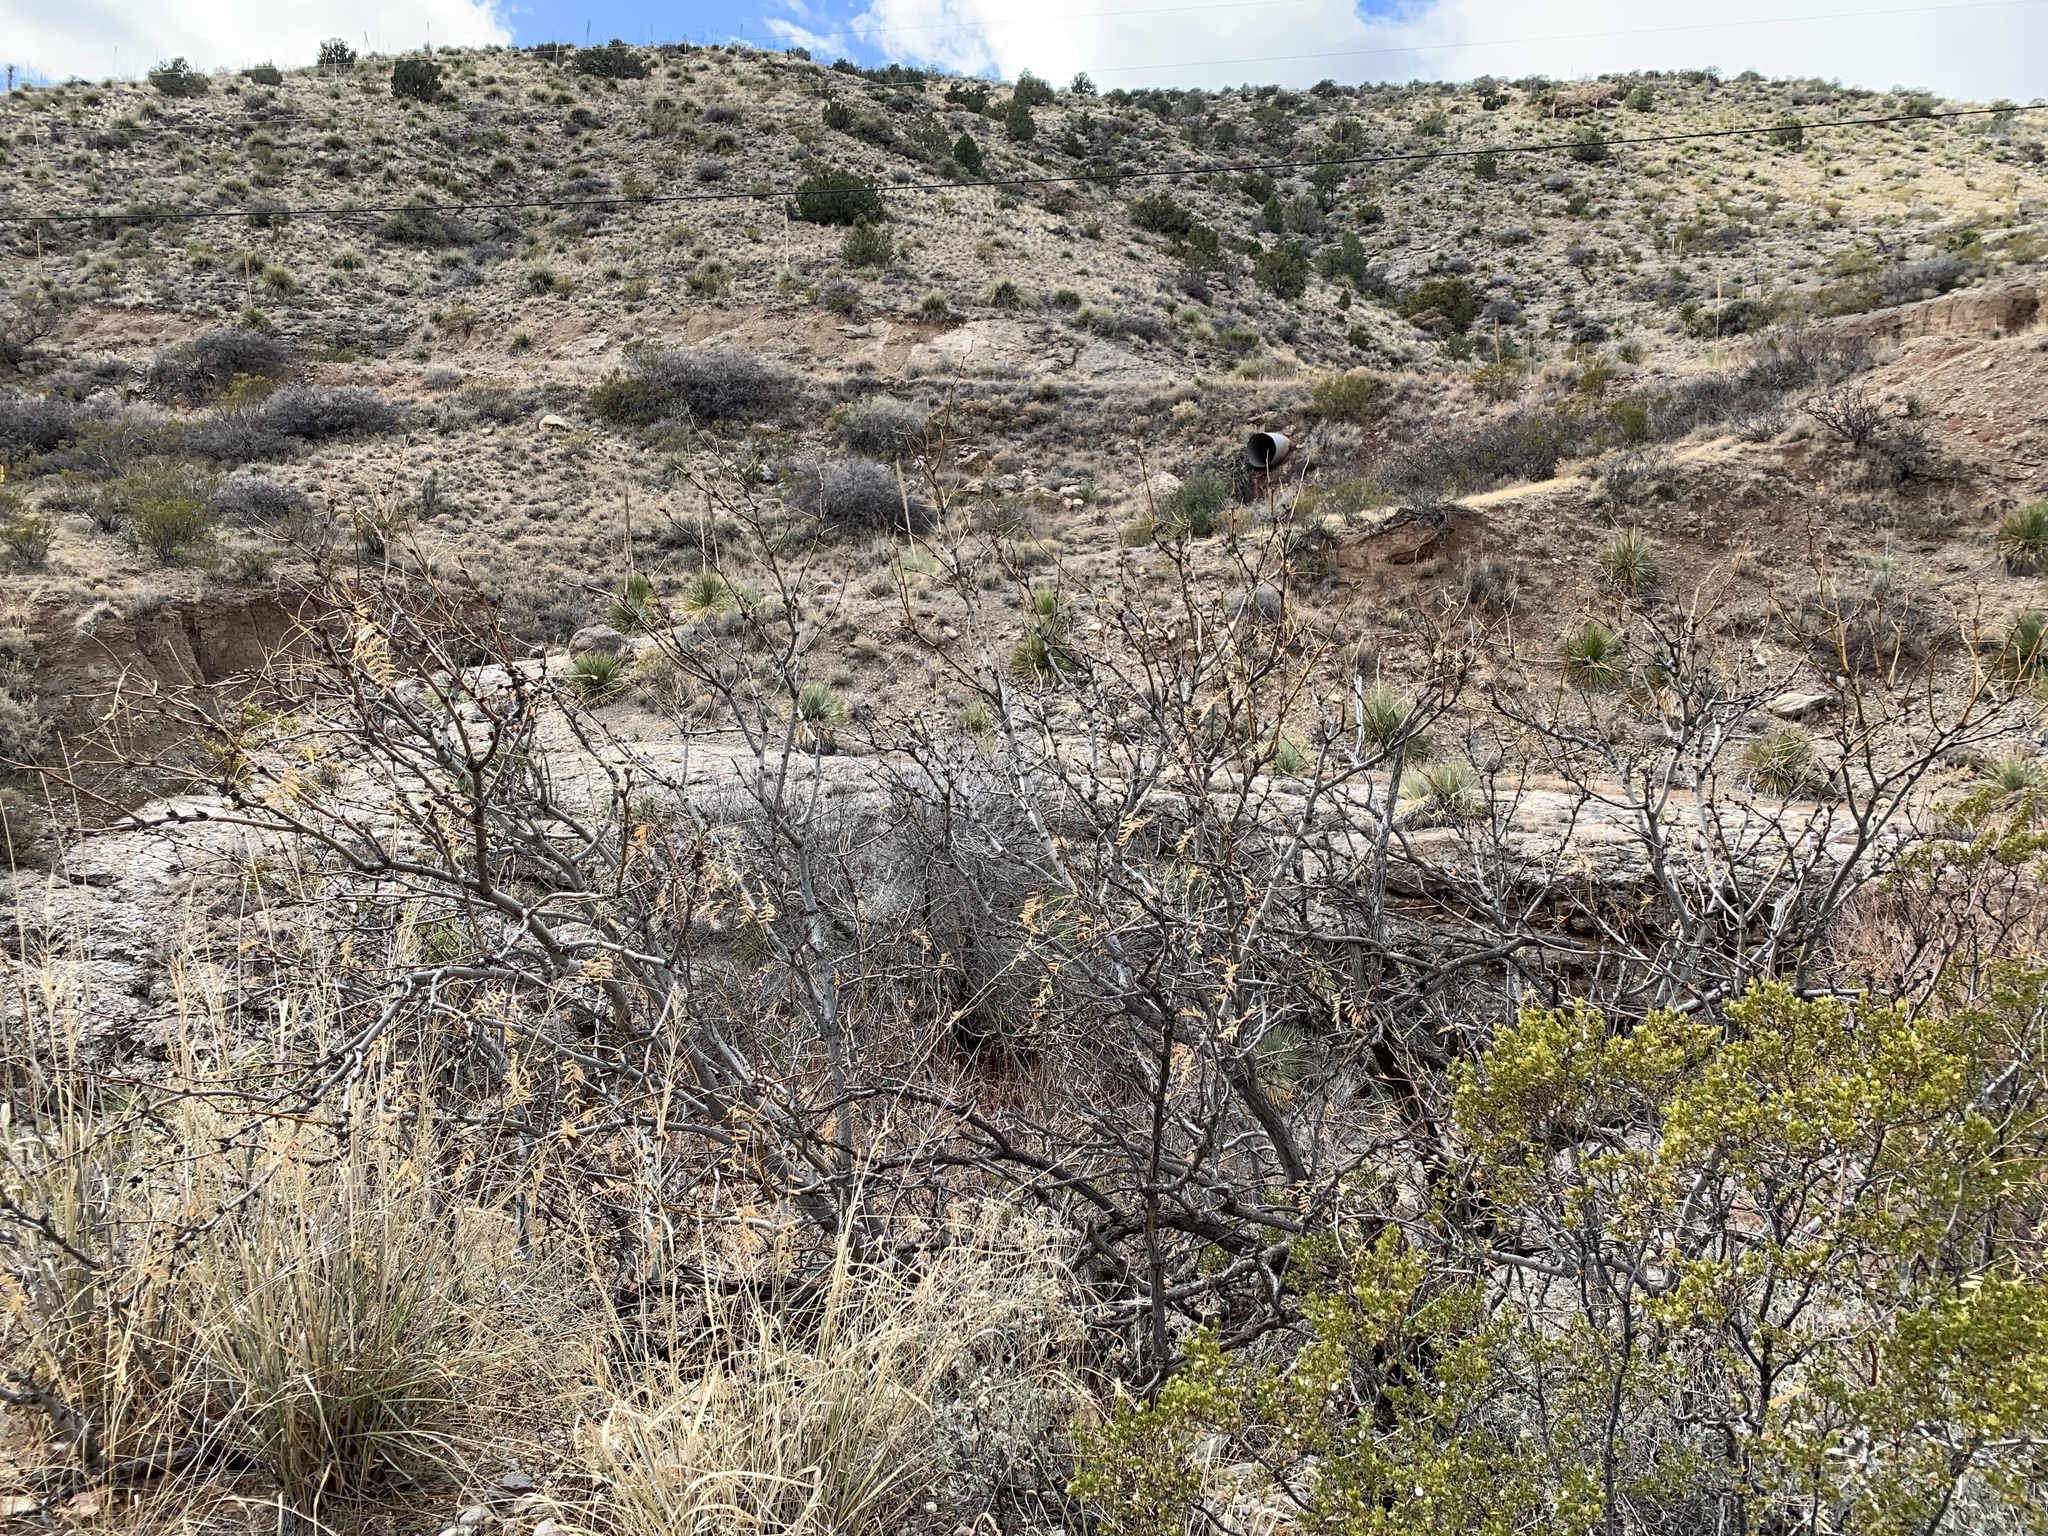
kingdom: Plantae
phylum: Tracheophyta
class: Magnoliopsida
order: Fabales
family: Fabaceae
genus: Prosopis
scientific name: Prosopis glandulosa
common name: Honey mesquite
